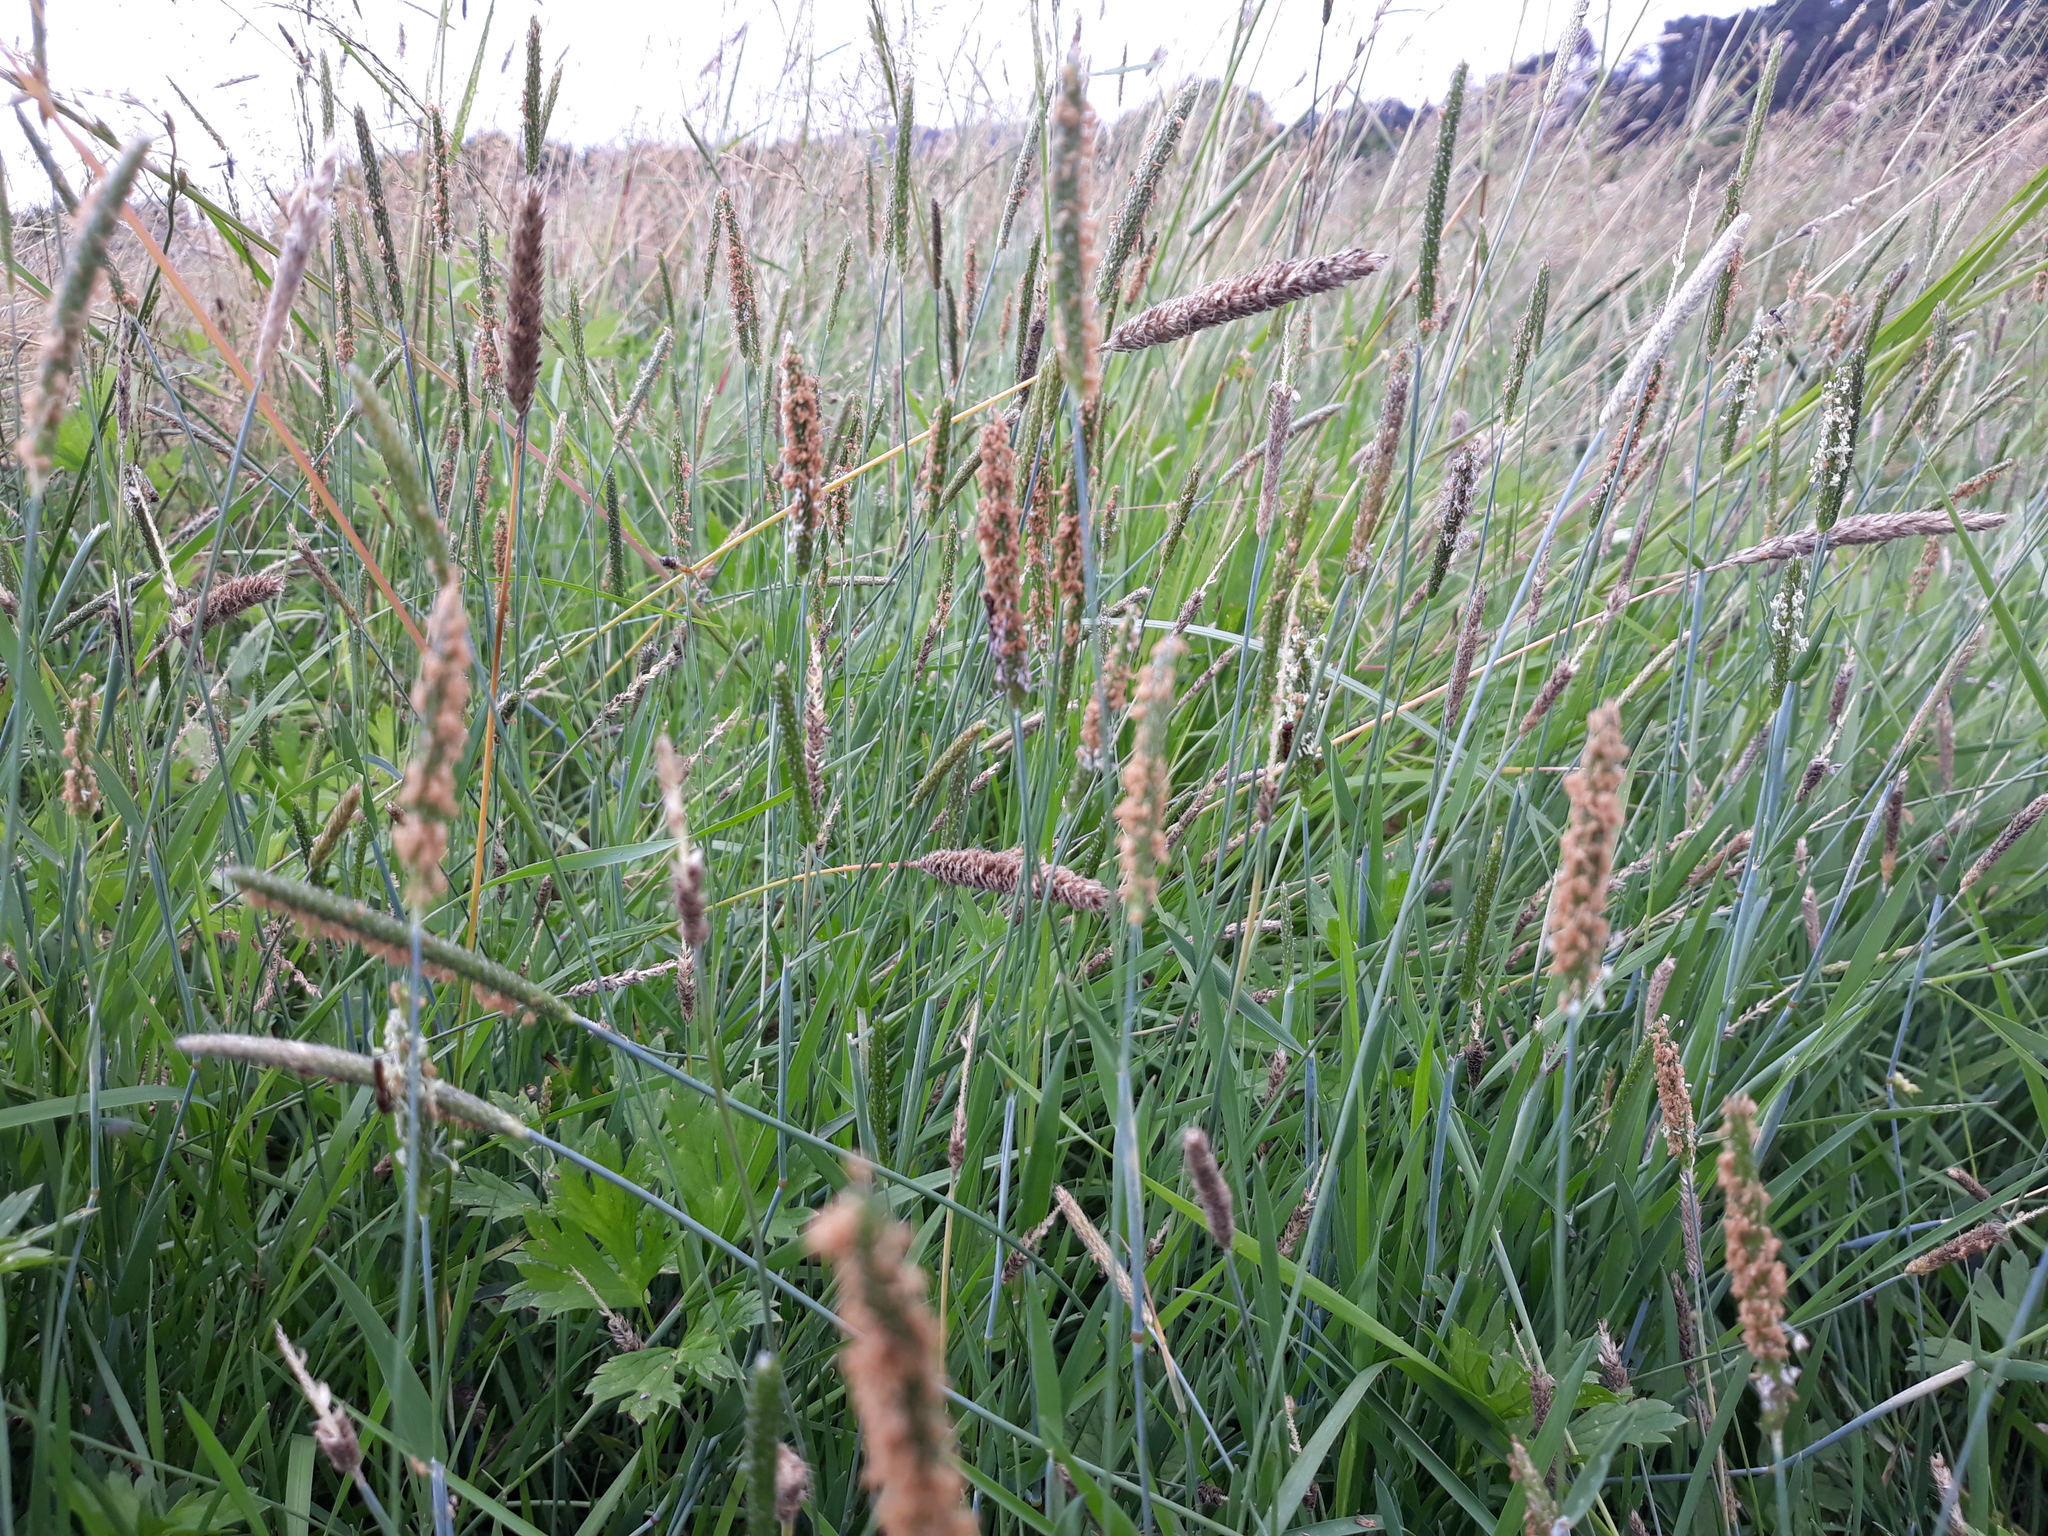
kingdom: Plantae
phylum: Tracheophyta
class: Liliopsida
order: Poales
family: Poaceae
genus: Alopecurus
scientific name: Alopecurus geniculatus
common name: Water foxtail
